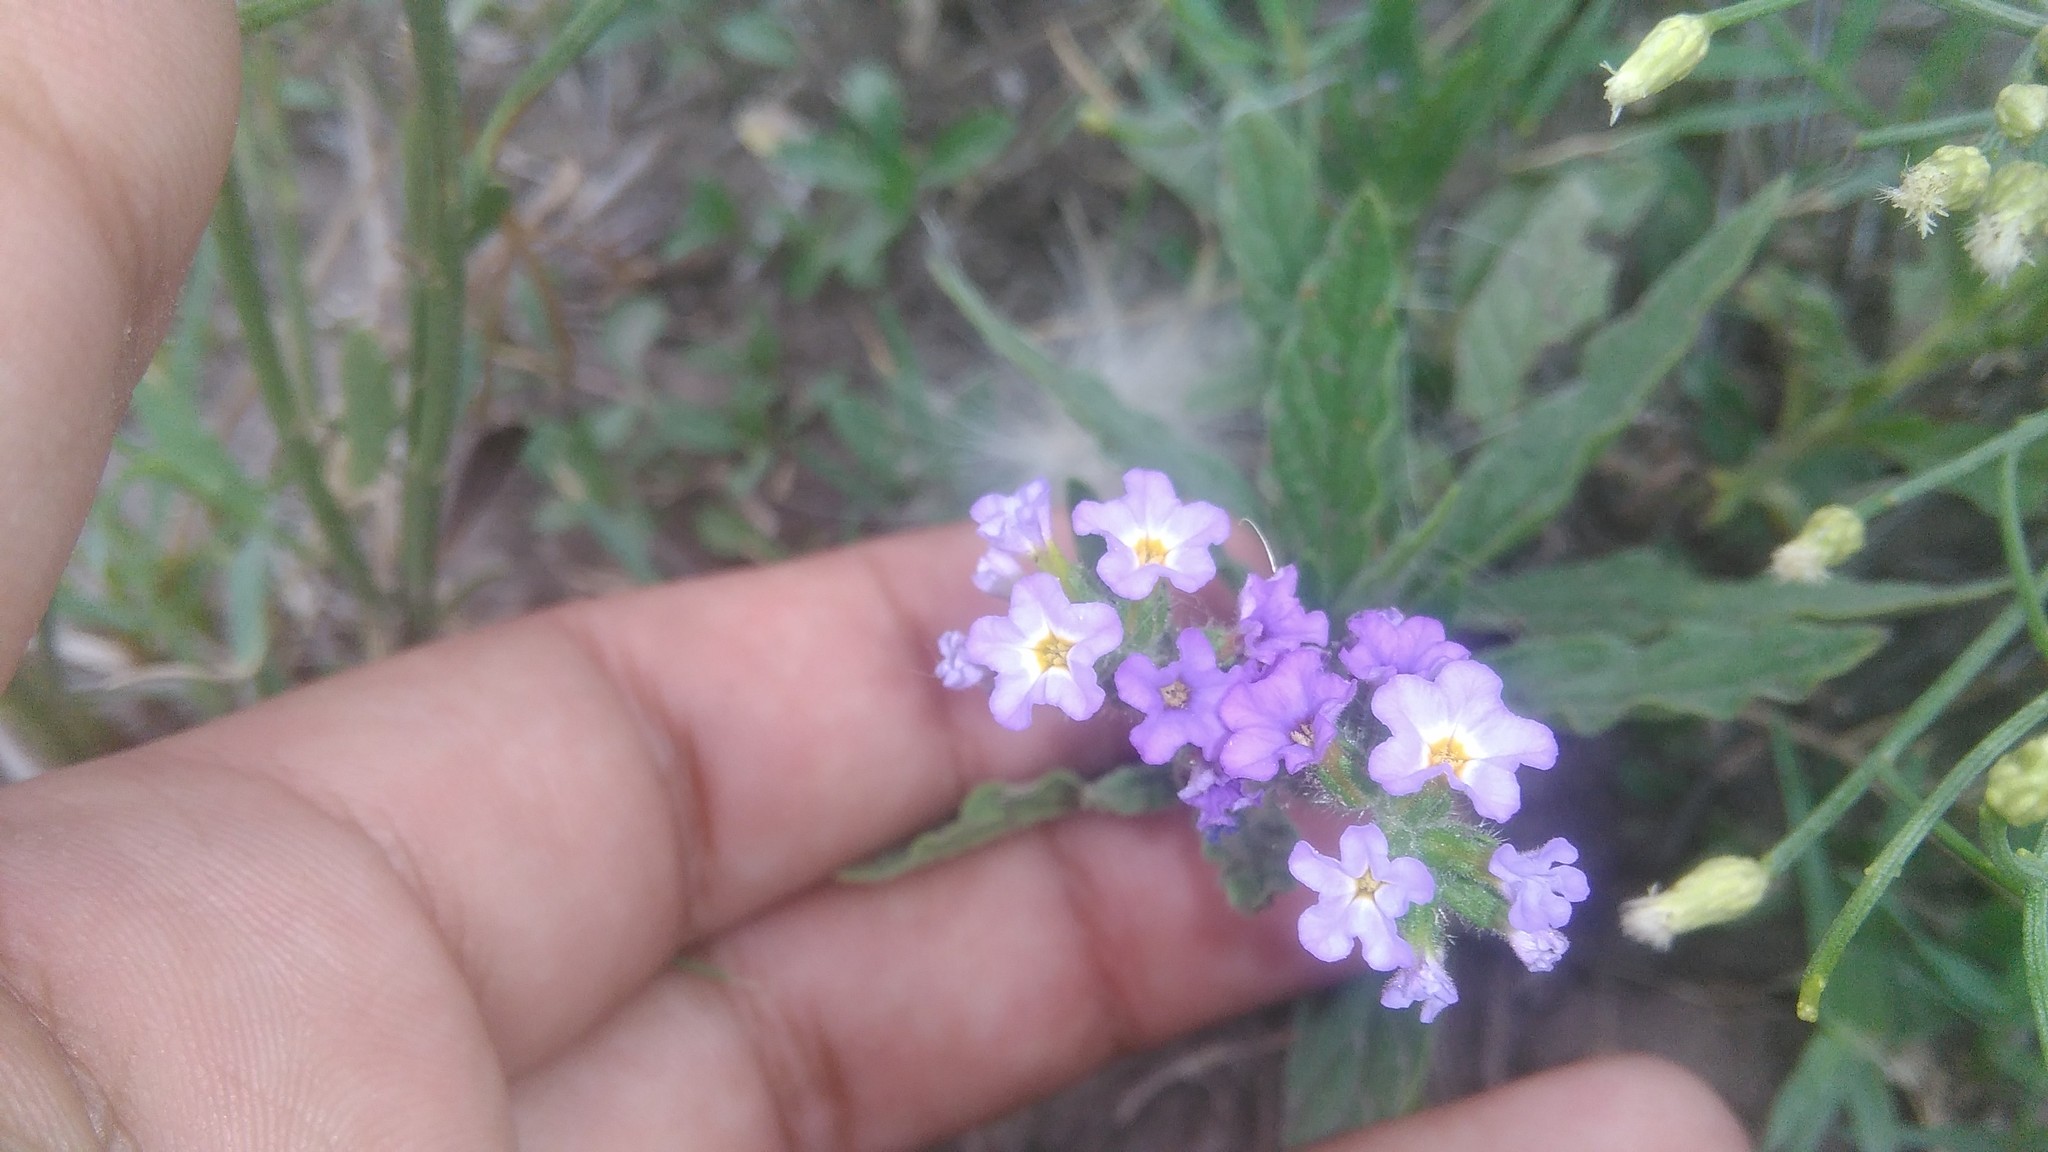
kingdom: Plantae
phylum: Tracheophyta
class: Magnoliopsida
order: Boraginales
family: Heliotropiaceae
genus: Heliotropium
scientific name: Heliotropium amplexicaule
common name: Clasping heliotrope
